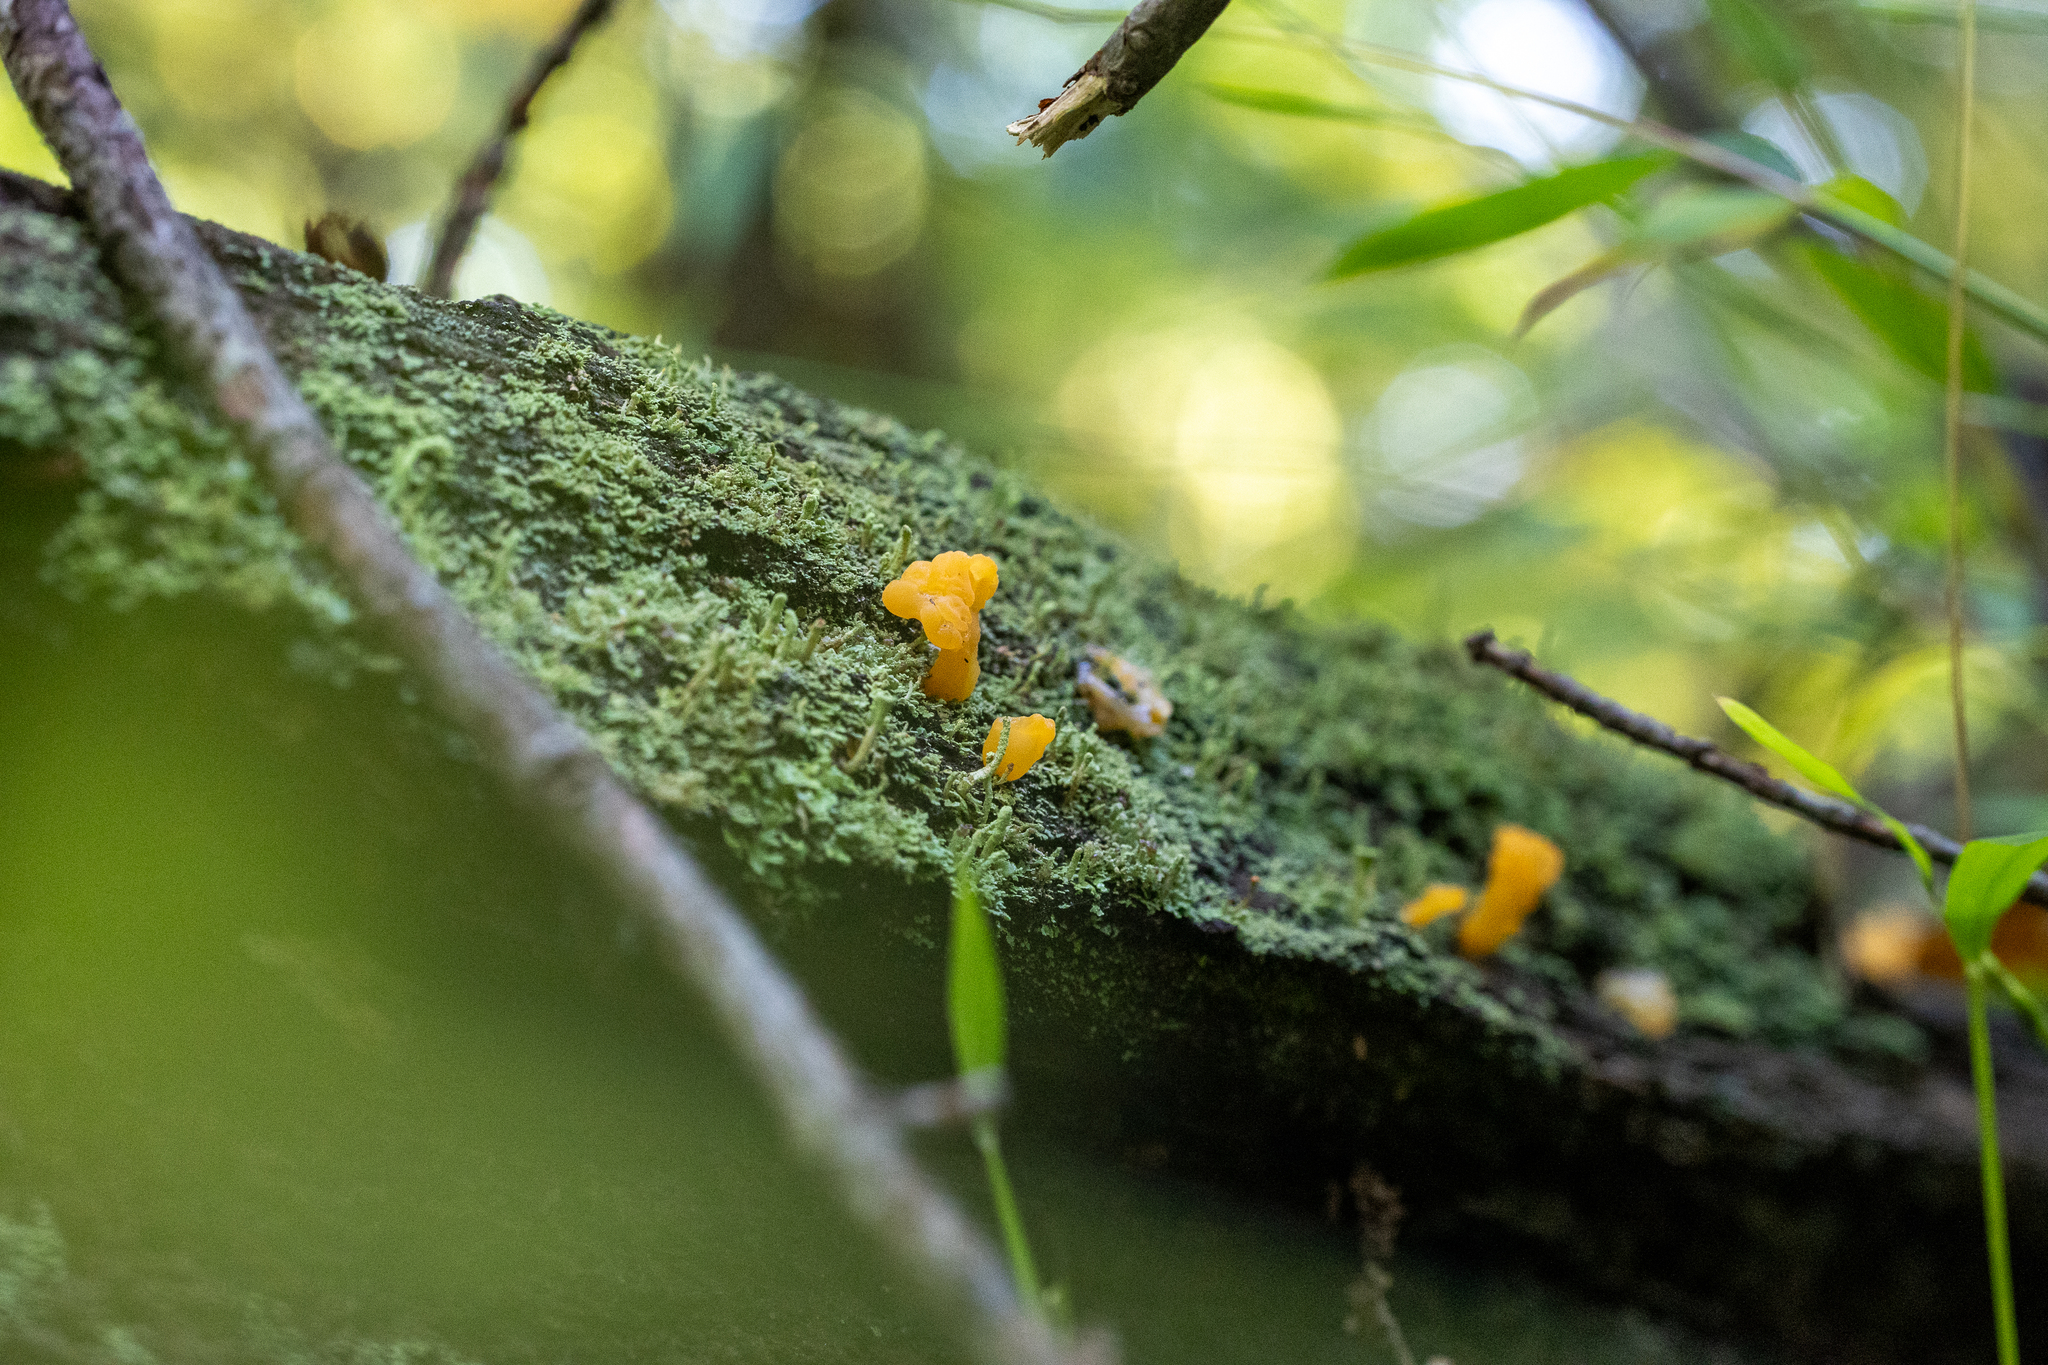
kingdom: Fungi
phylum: Basidiomycota
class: Dacrymycetes
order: Dacrymycetales
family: Dacrymycetaceae
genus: Dacrymyces
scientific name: Dacrymyces spathularius
